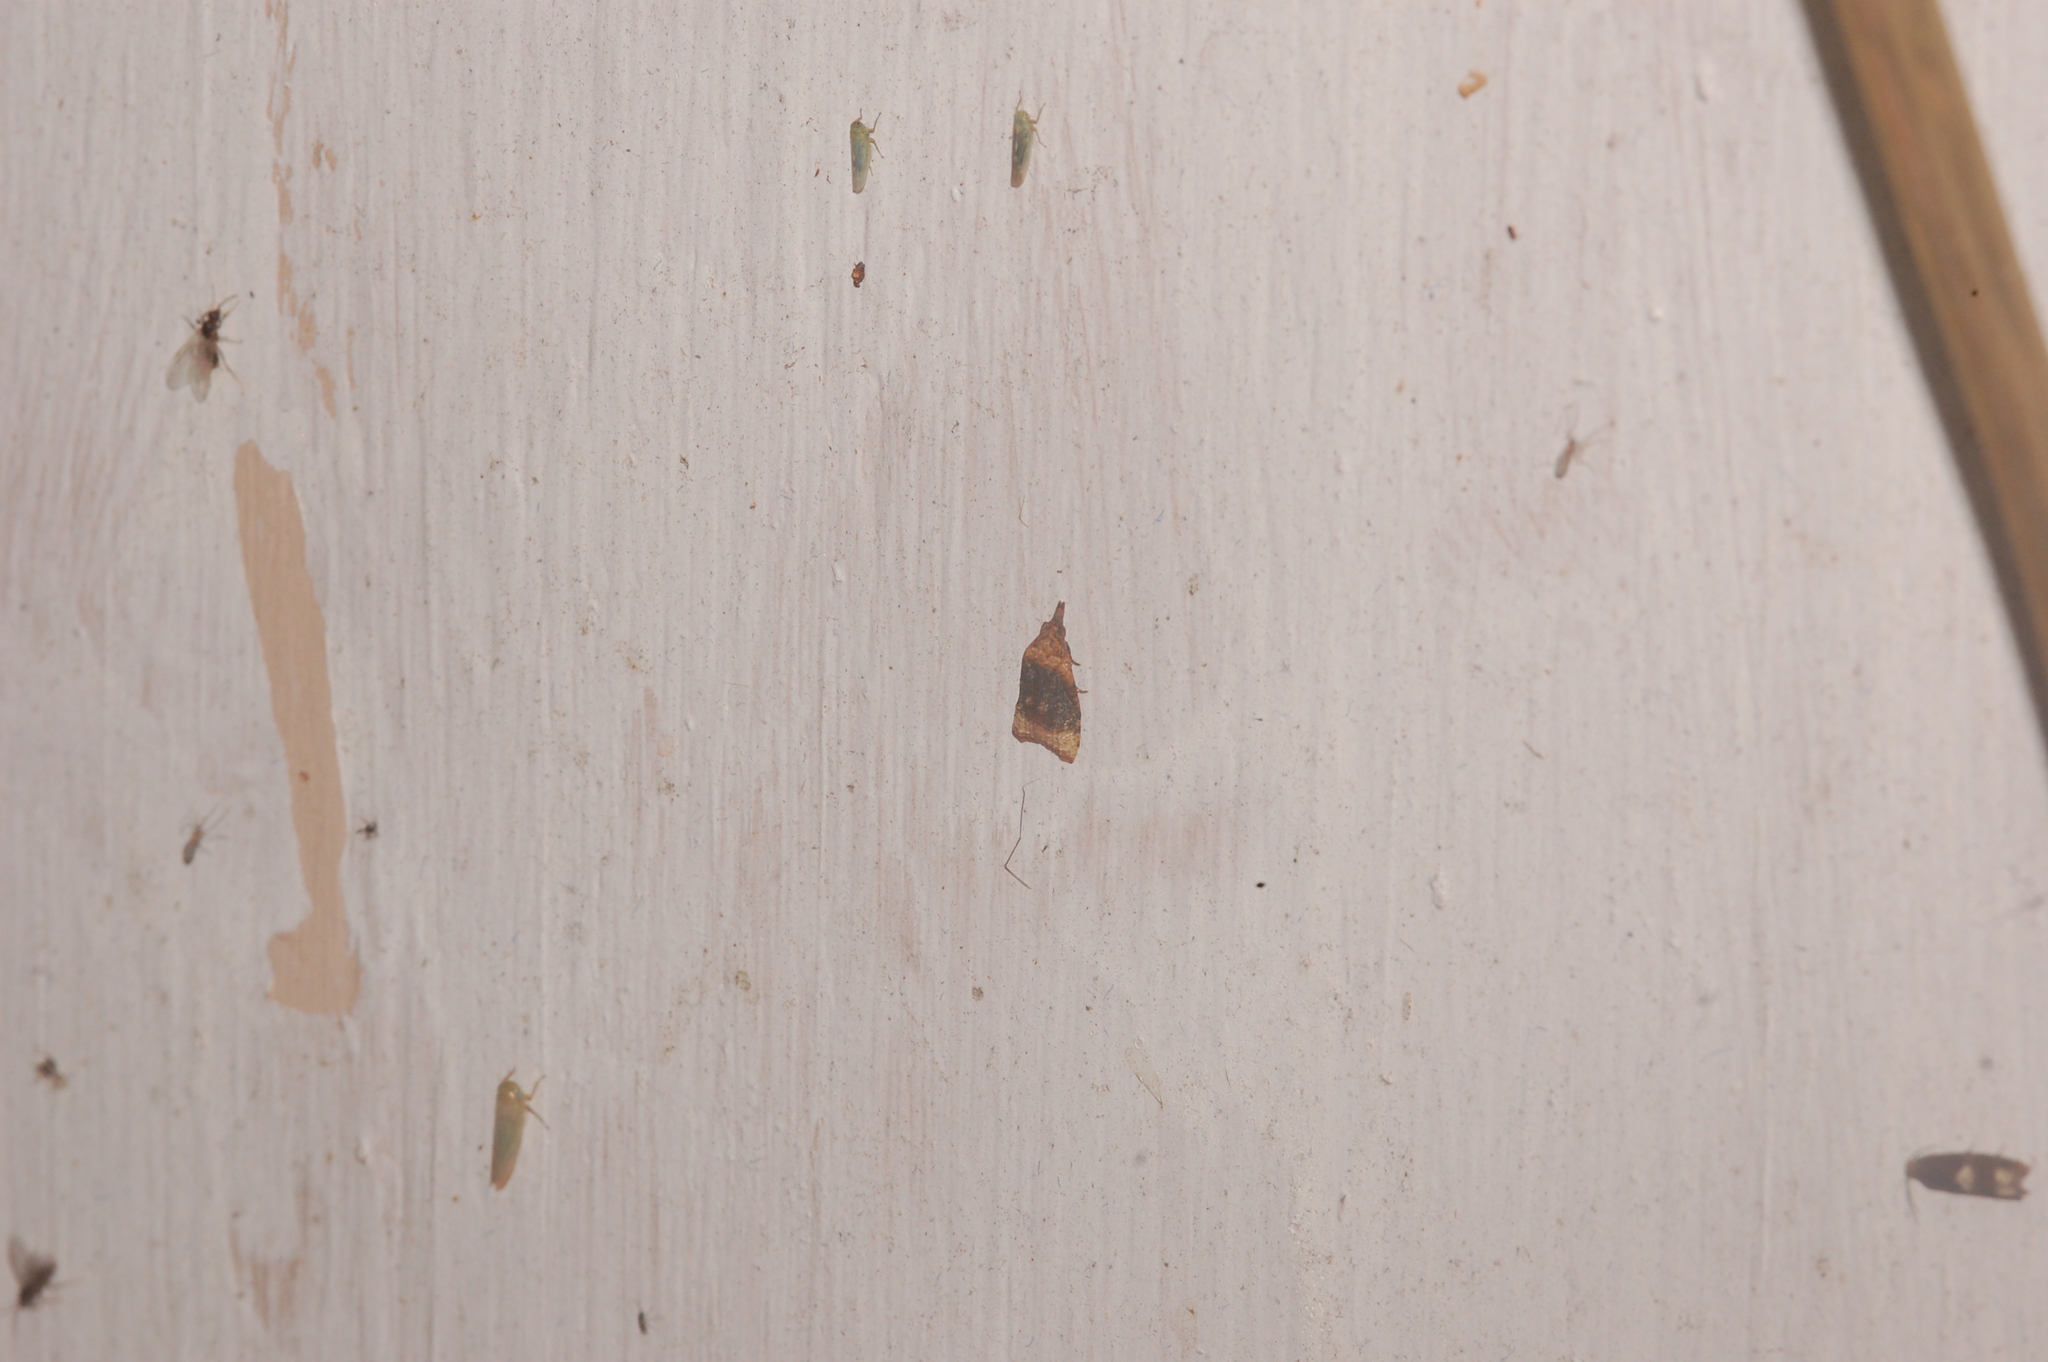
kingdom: Animalia
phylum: Arthropoda
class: Insecta
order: Lepidoptera
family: Tortricidae
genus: Platynota
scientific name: Platynota flavedana
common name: Black-shaded platynota moth
